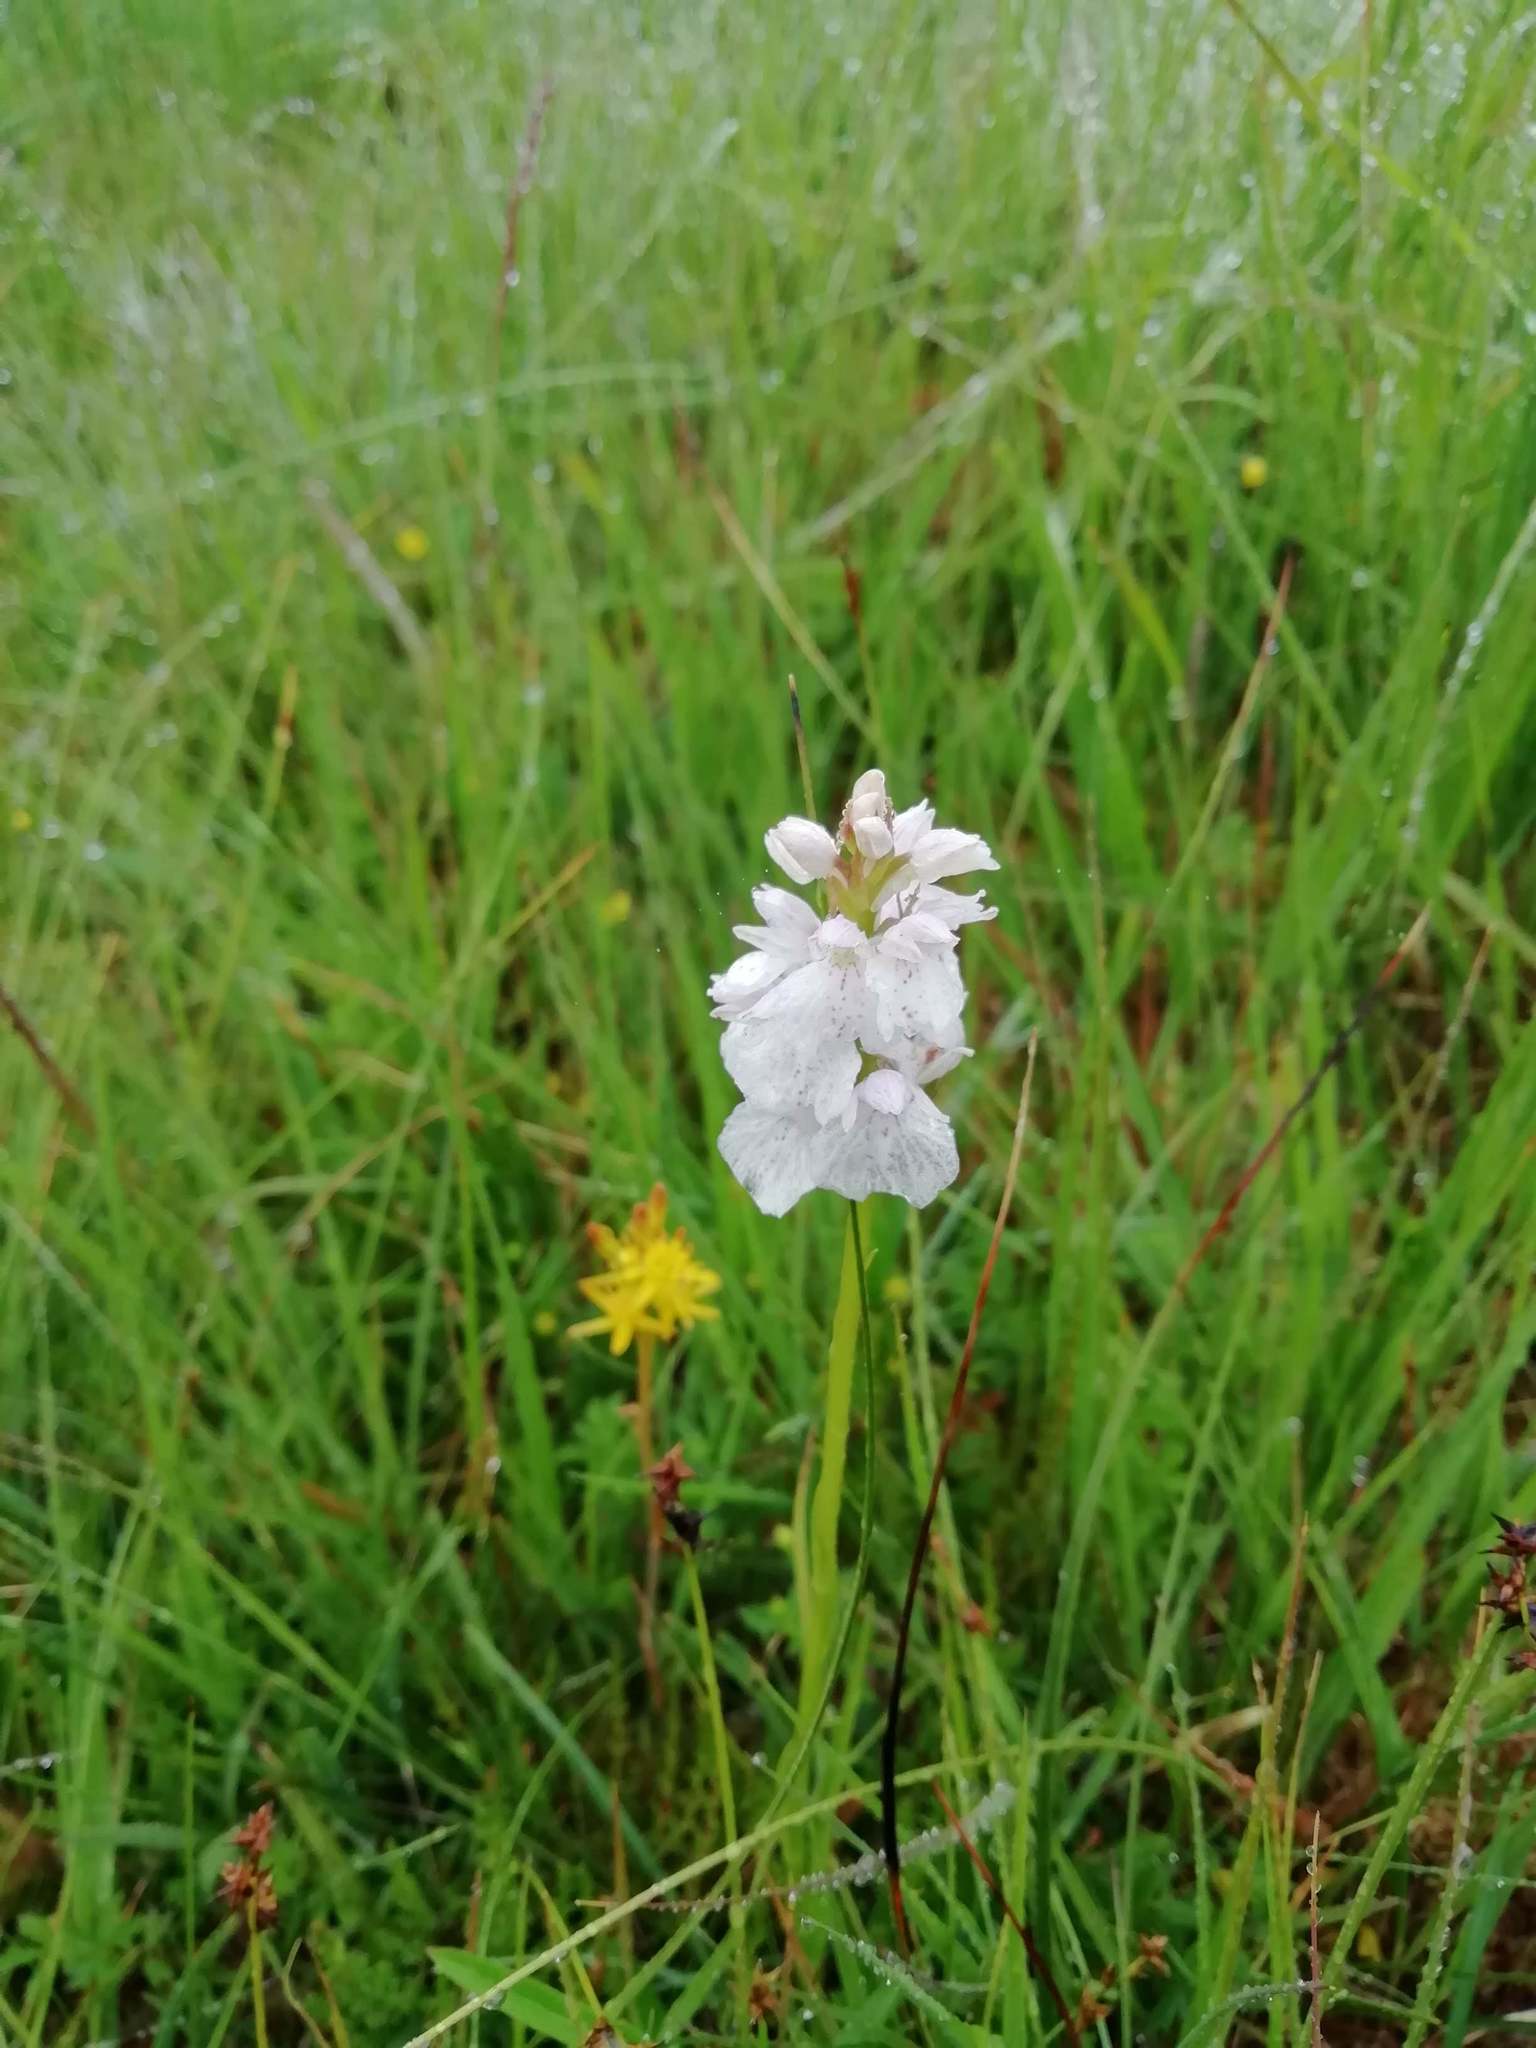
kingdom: Plantae
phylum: Tracheophyta
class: Liliopsida
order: Asparagales
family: Orchidaceae
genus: Dactylorhiza
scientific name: Dactylorhiza maculata
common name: Heath spotted-orchid
